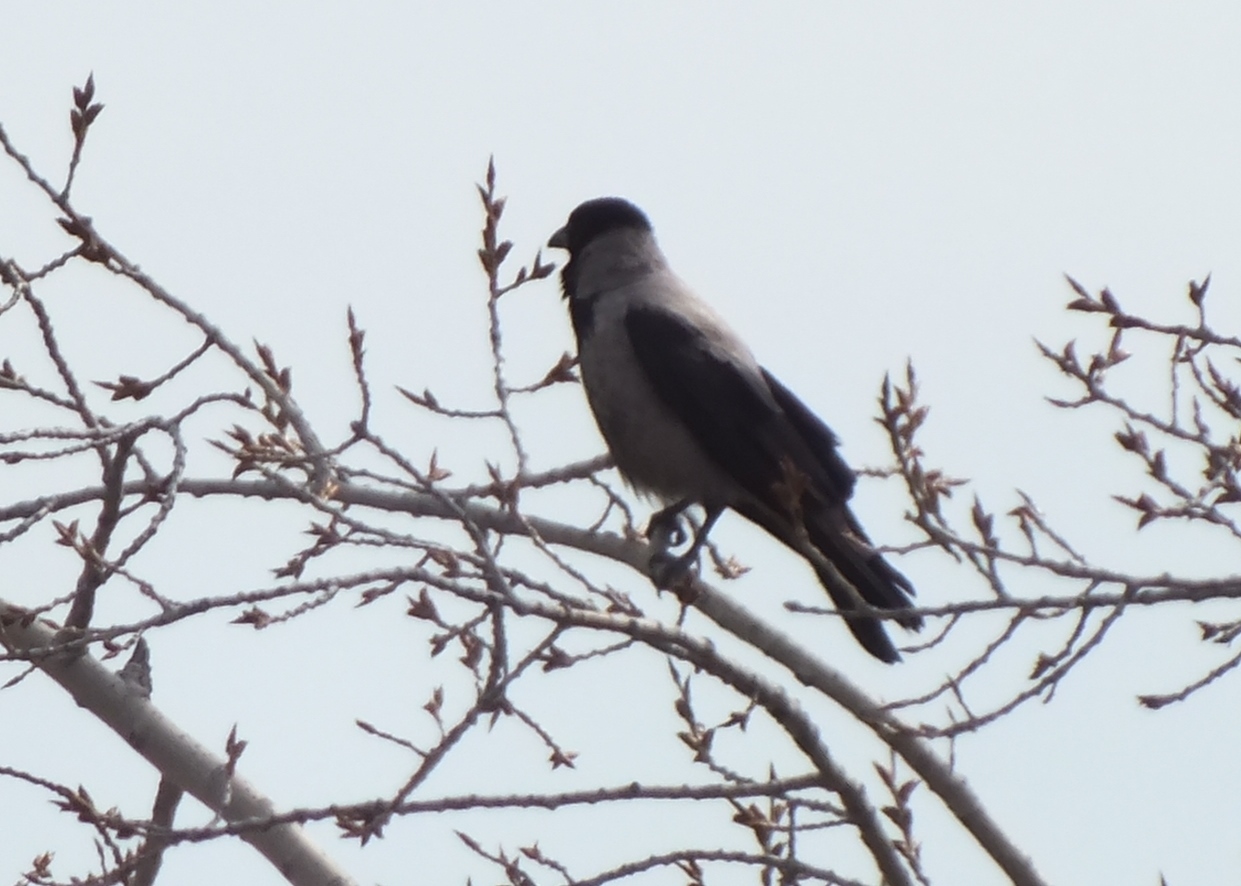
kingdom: Animalia
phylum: Chordata
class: Aves
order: Passeriformes
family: Corvidae
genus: Corvus
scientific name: Corvus cornix
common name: Hooded crow
